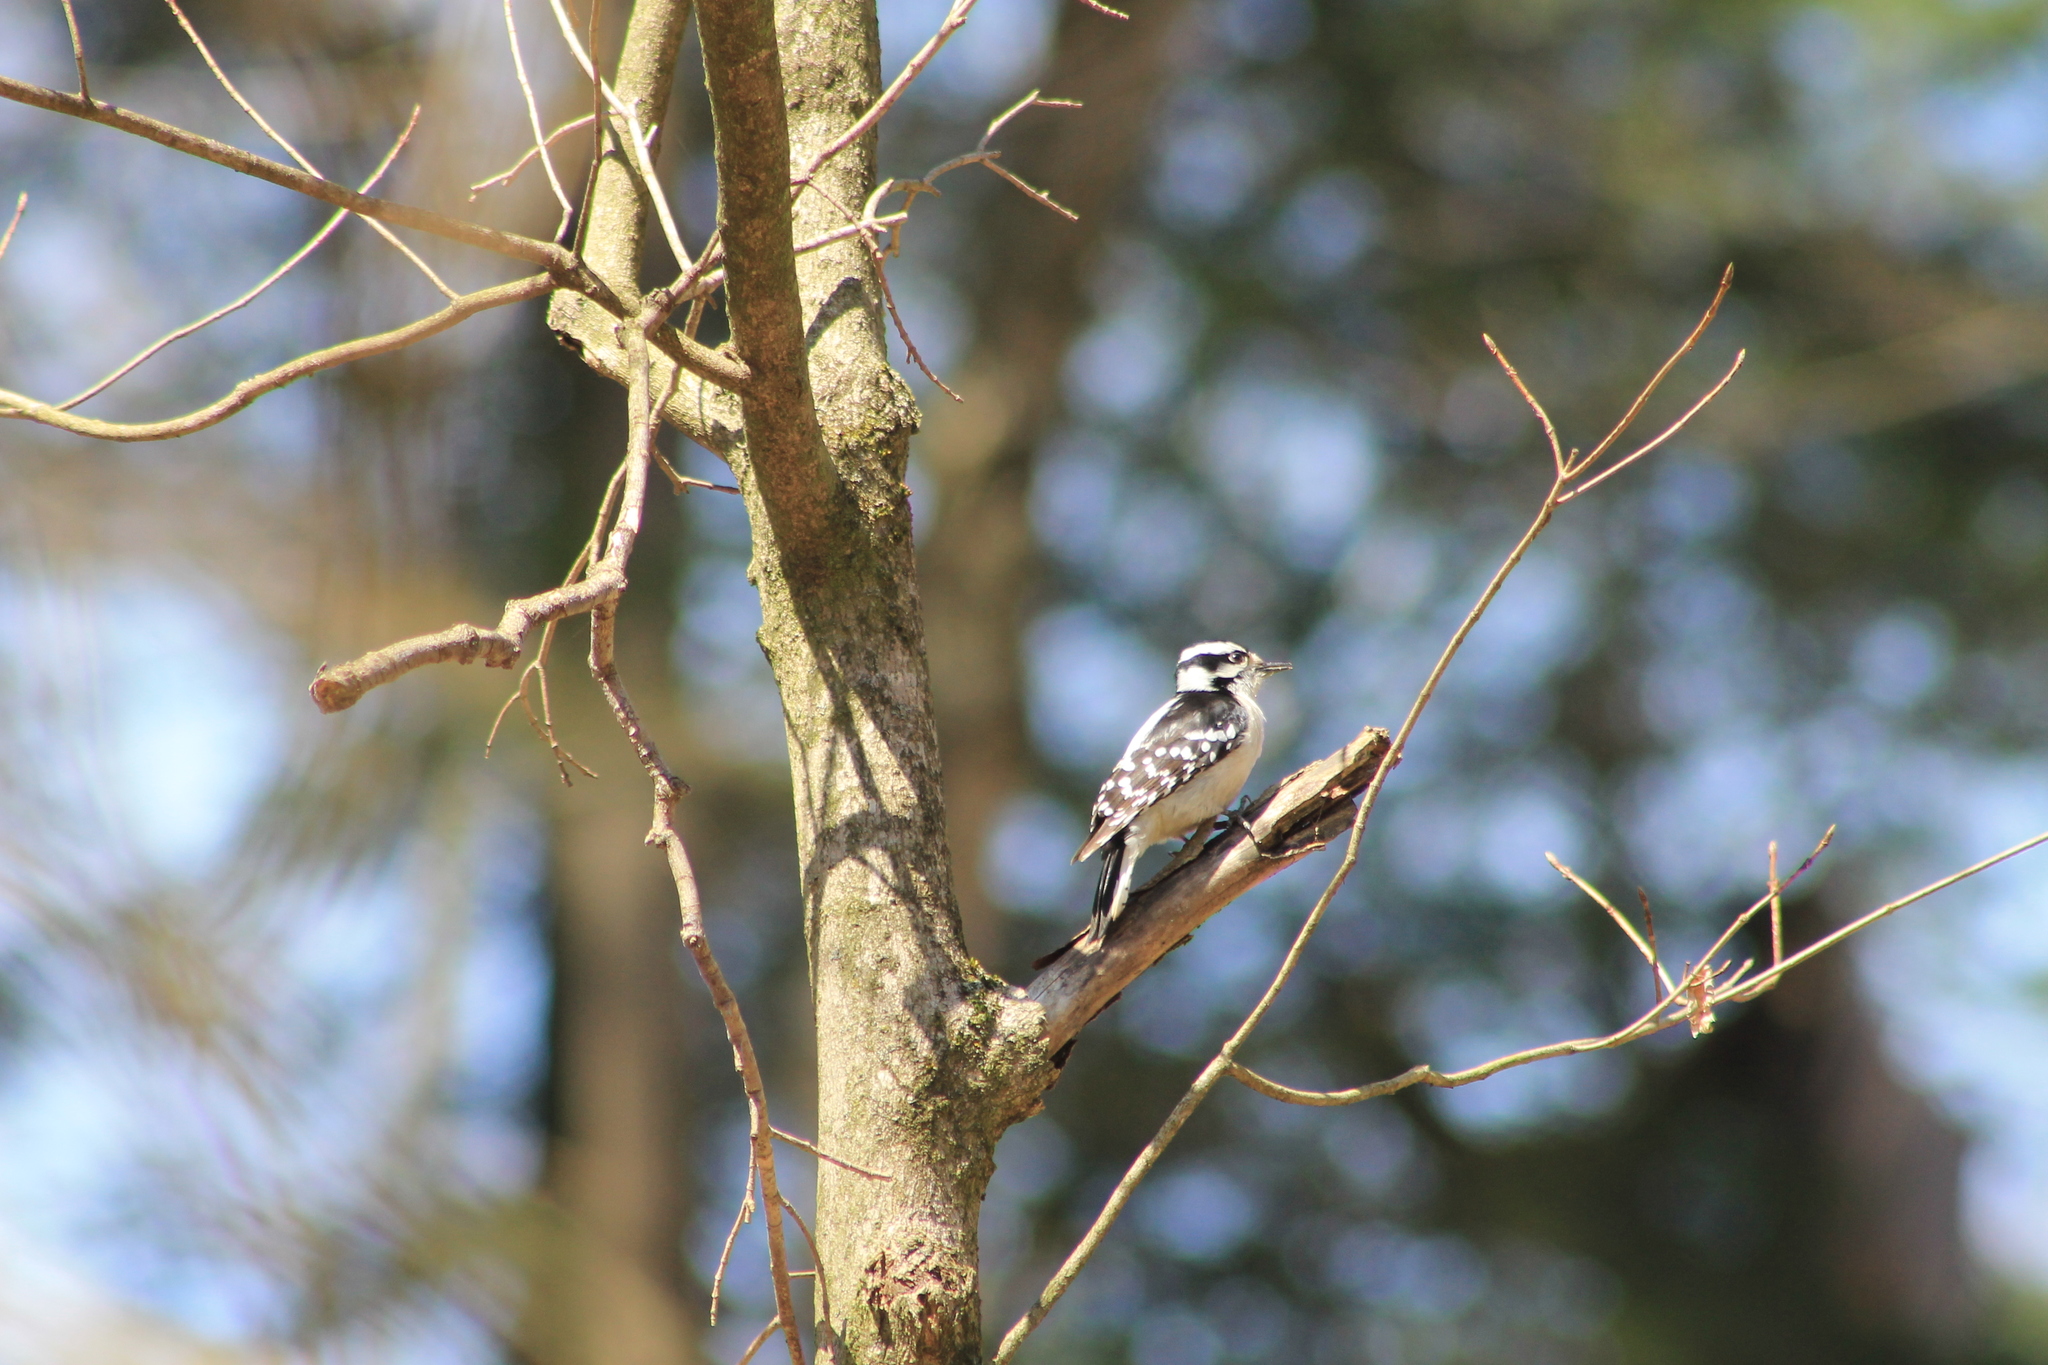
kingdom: Animalia
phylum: Chordata
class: Aves
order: Piciformes
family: Picidae
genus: Dryobates
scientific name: Dryobates pubescens
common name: Downy woodpecker
